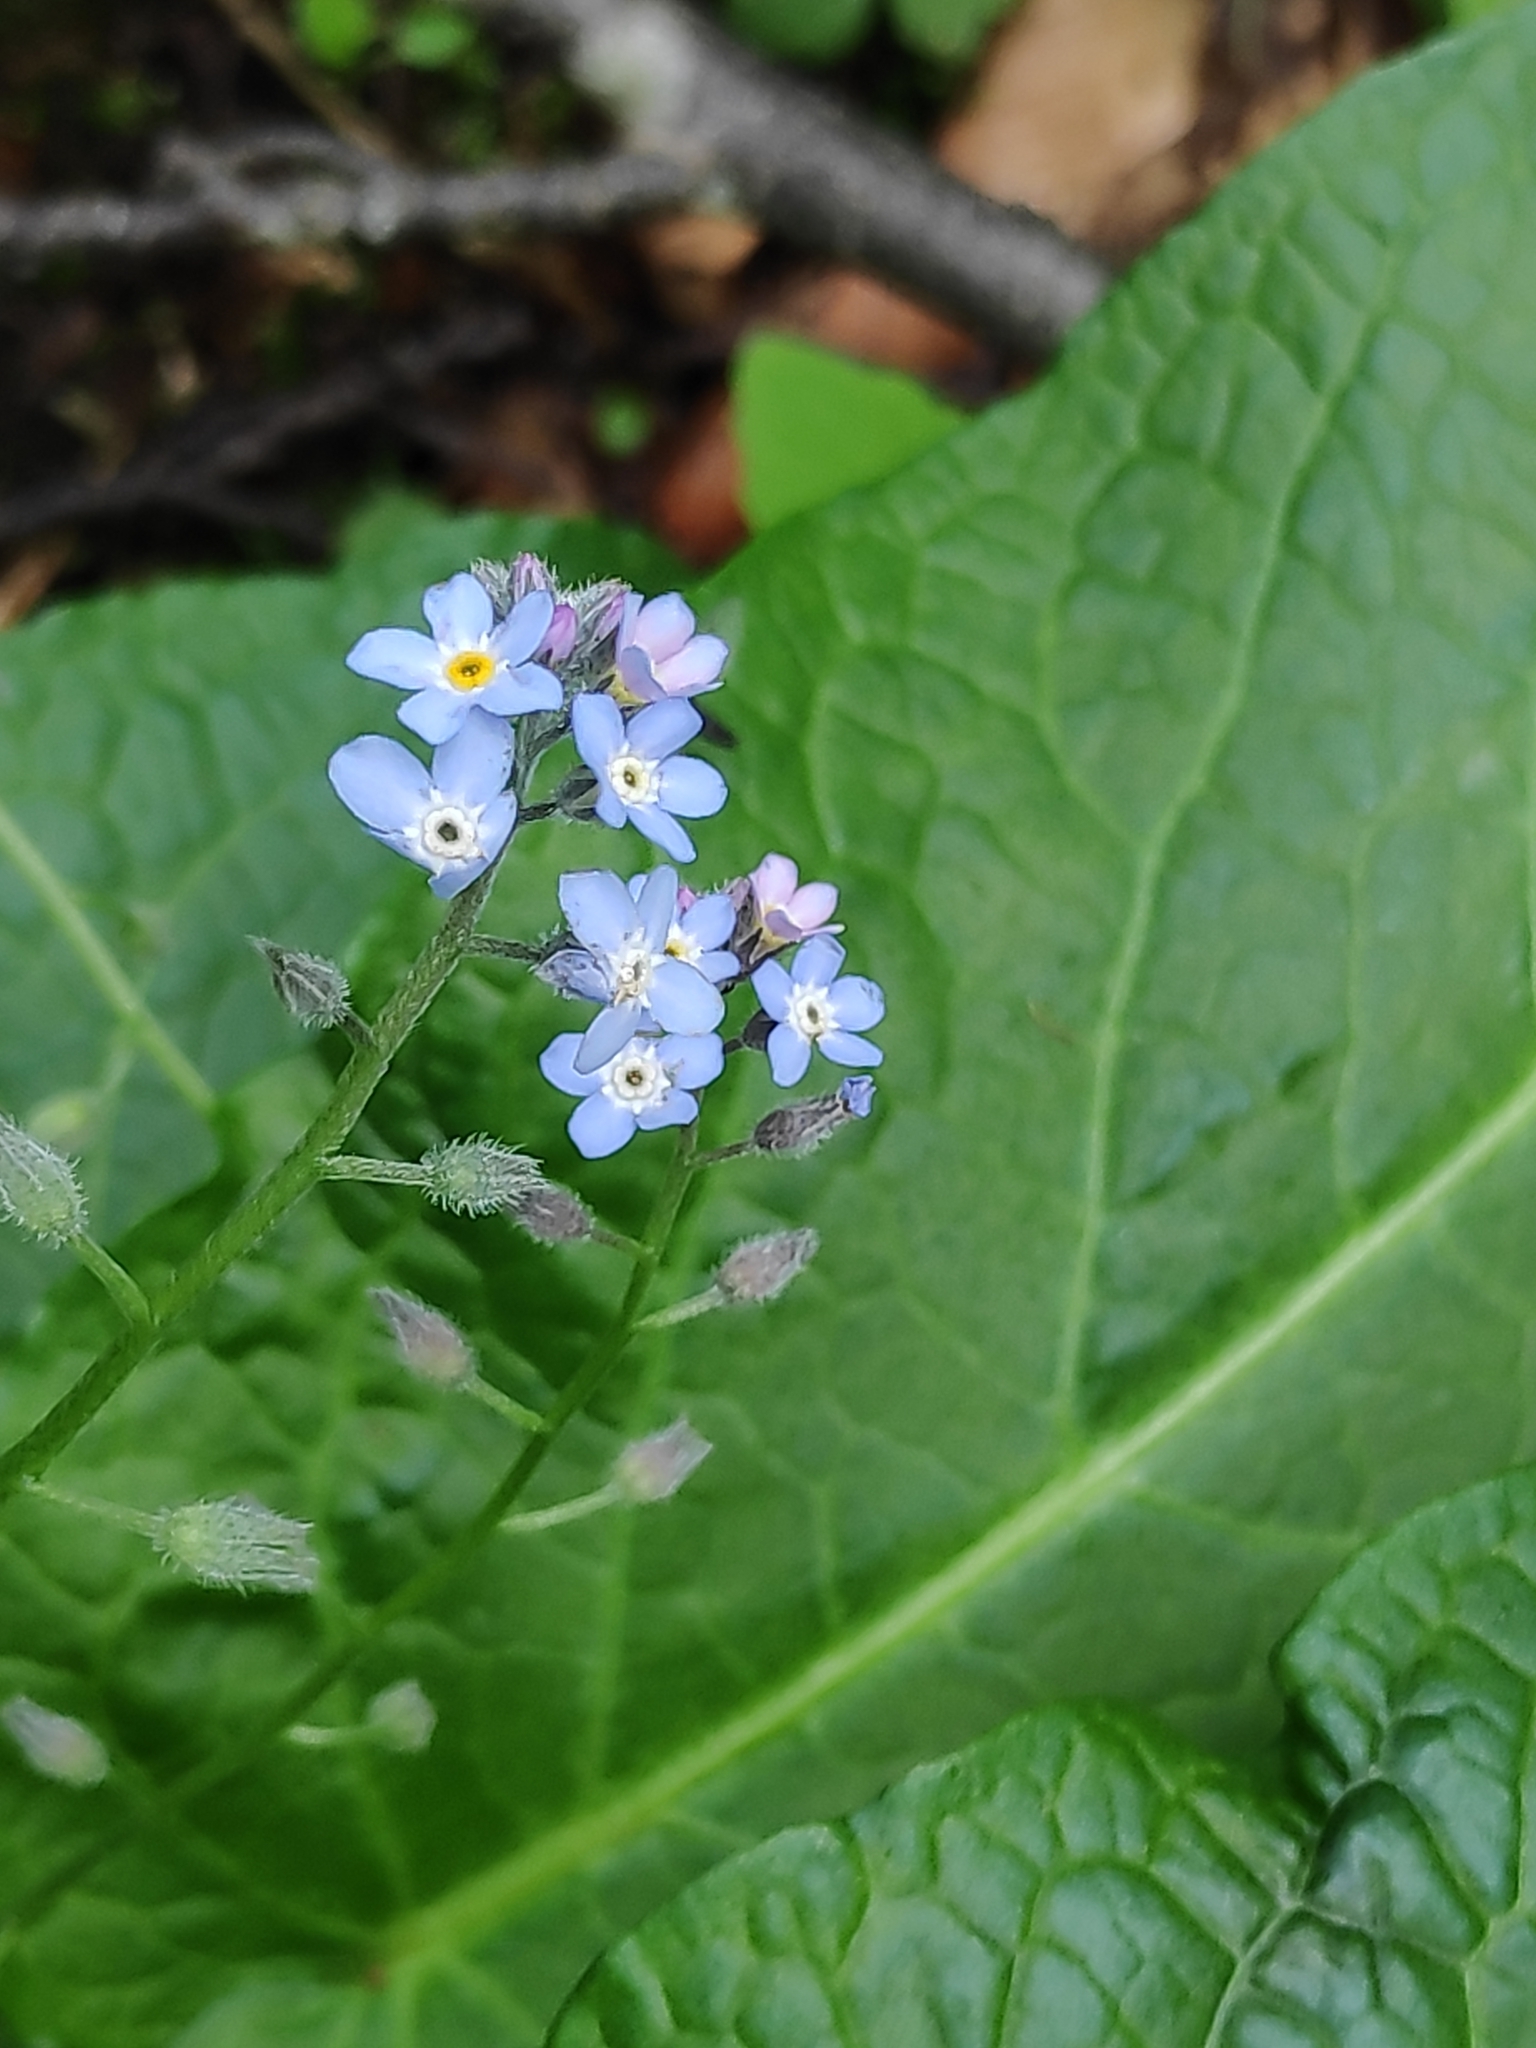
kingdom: Plantae
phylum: Tracheophyta
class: Magnoliopsida
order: Boraginales
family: Boraginaceae
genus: Myosotis
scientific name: Myosotis sylvatica
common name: Wood forget-me-not
